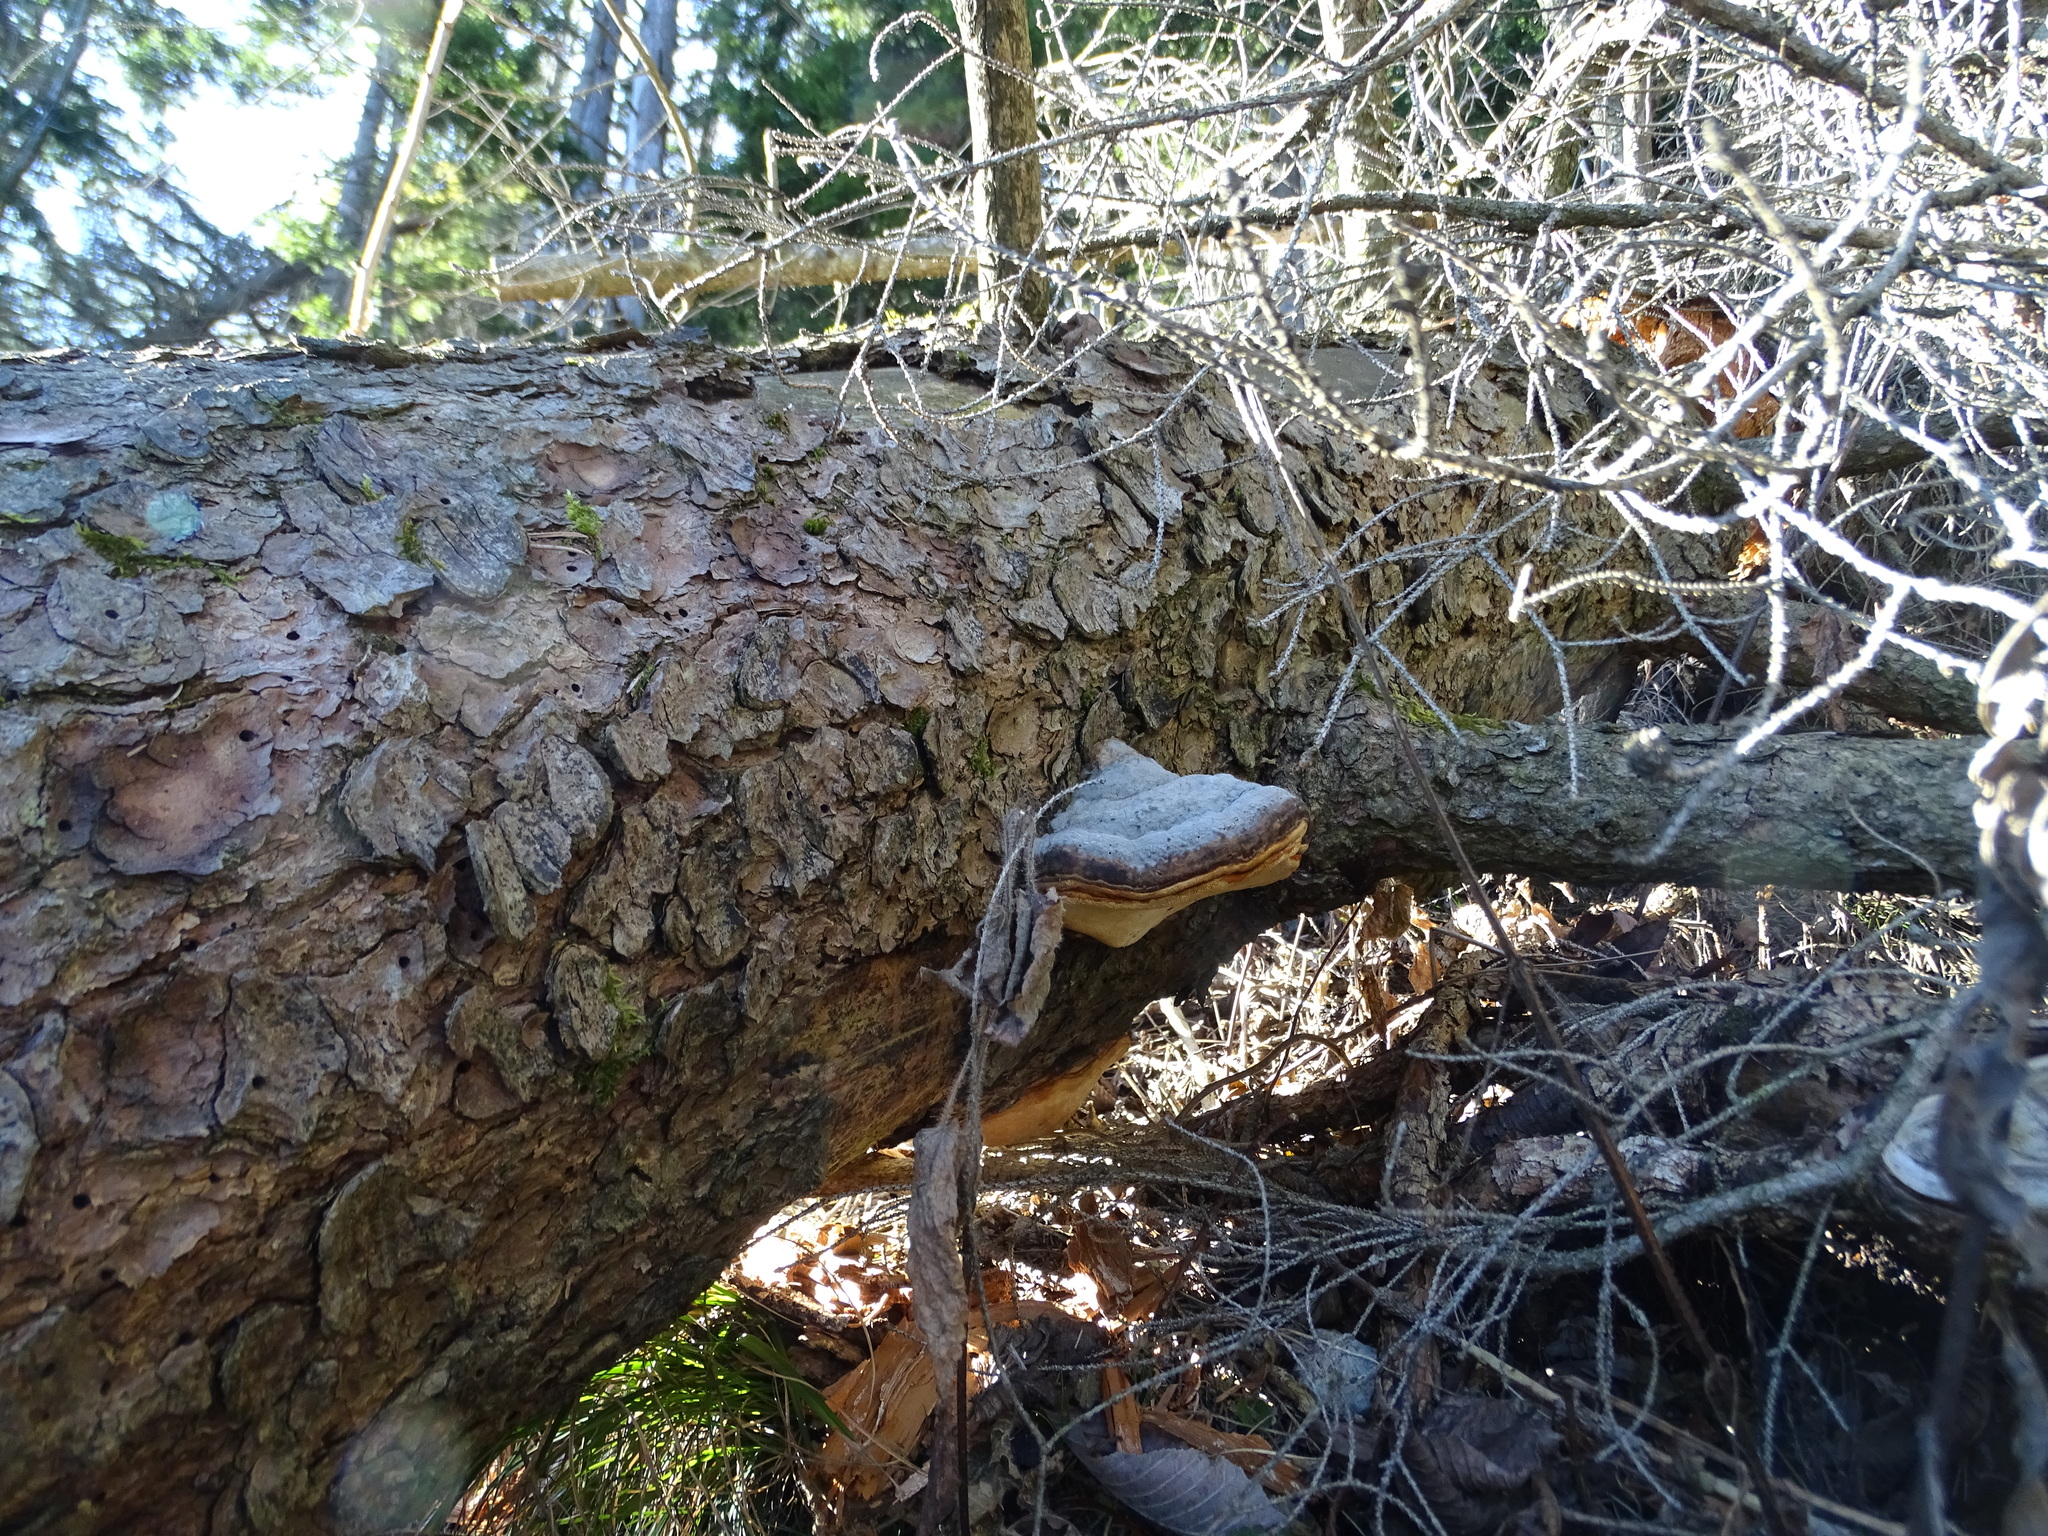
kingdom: Fungi
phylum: Basidiomycota
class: Agaricomycetes
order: Polyporales
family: Fomitopsidaceae
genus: Fomitopsis
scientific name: Fomitopsis pinicola
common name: Red-belted bracket
